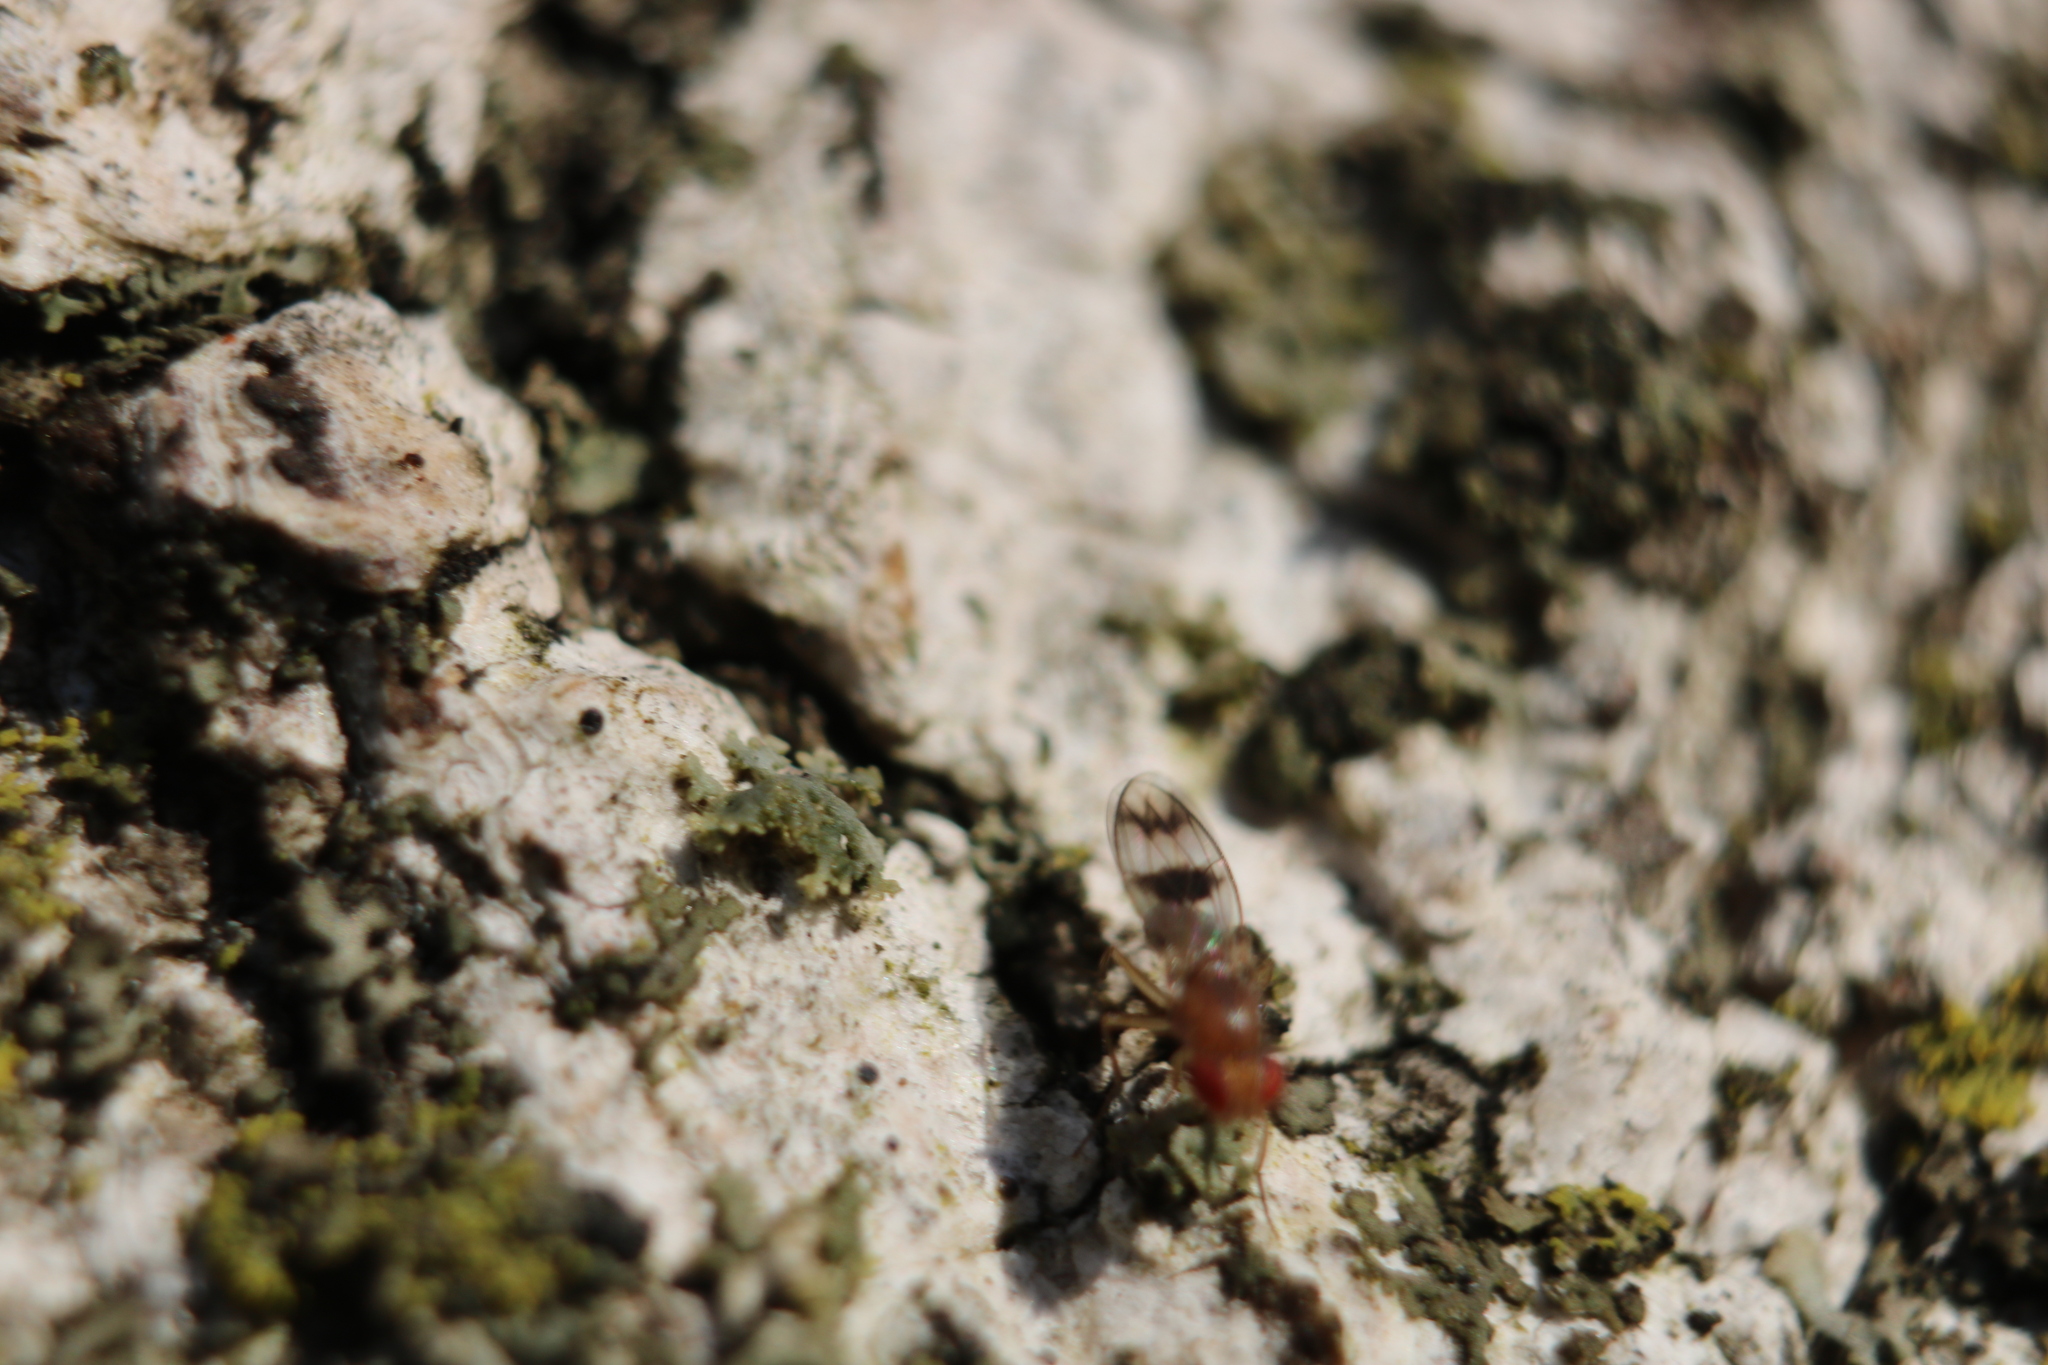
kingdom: Animalia
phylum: Arthropoda
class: Insecta
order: Diptera
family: Drosophilidae
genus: Chymomyza
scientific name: Chymomyza amoena
